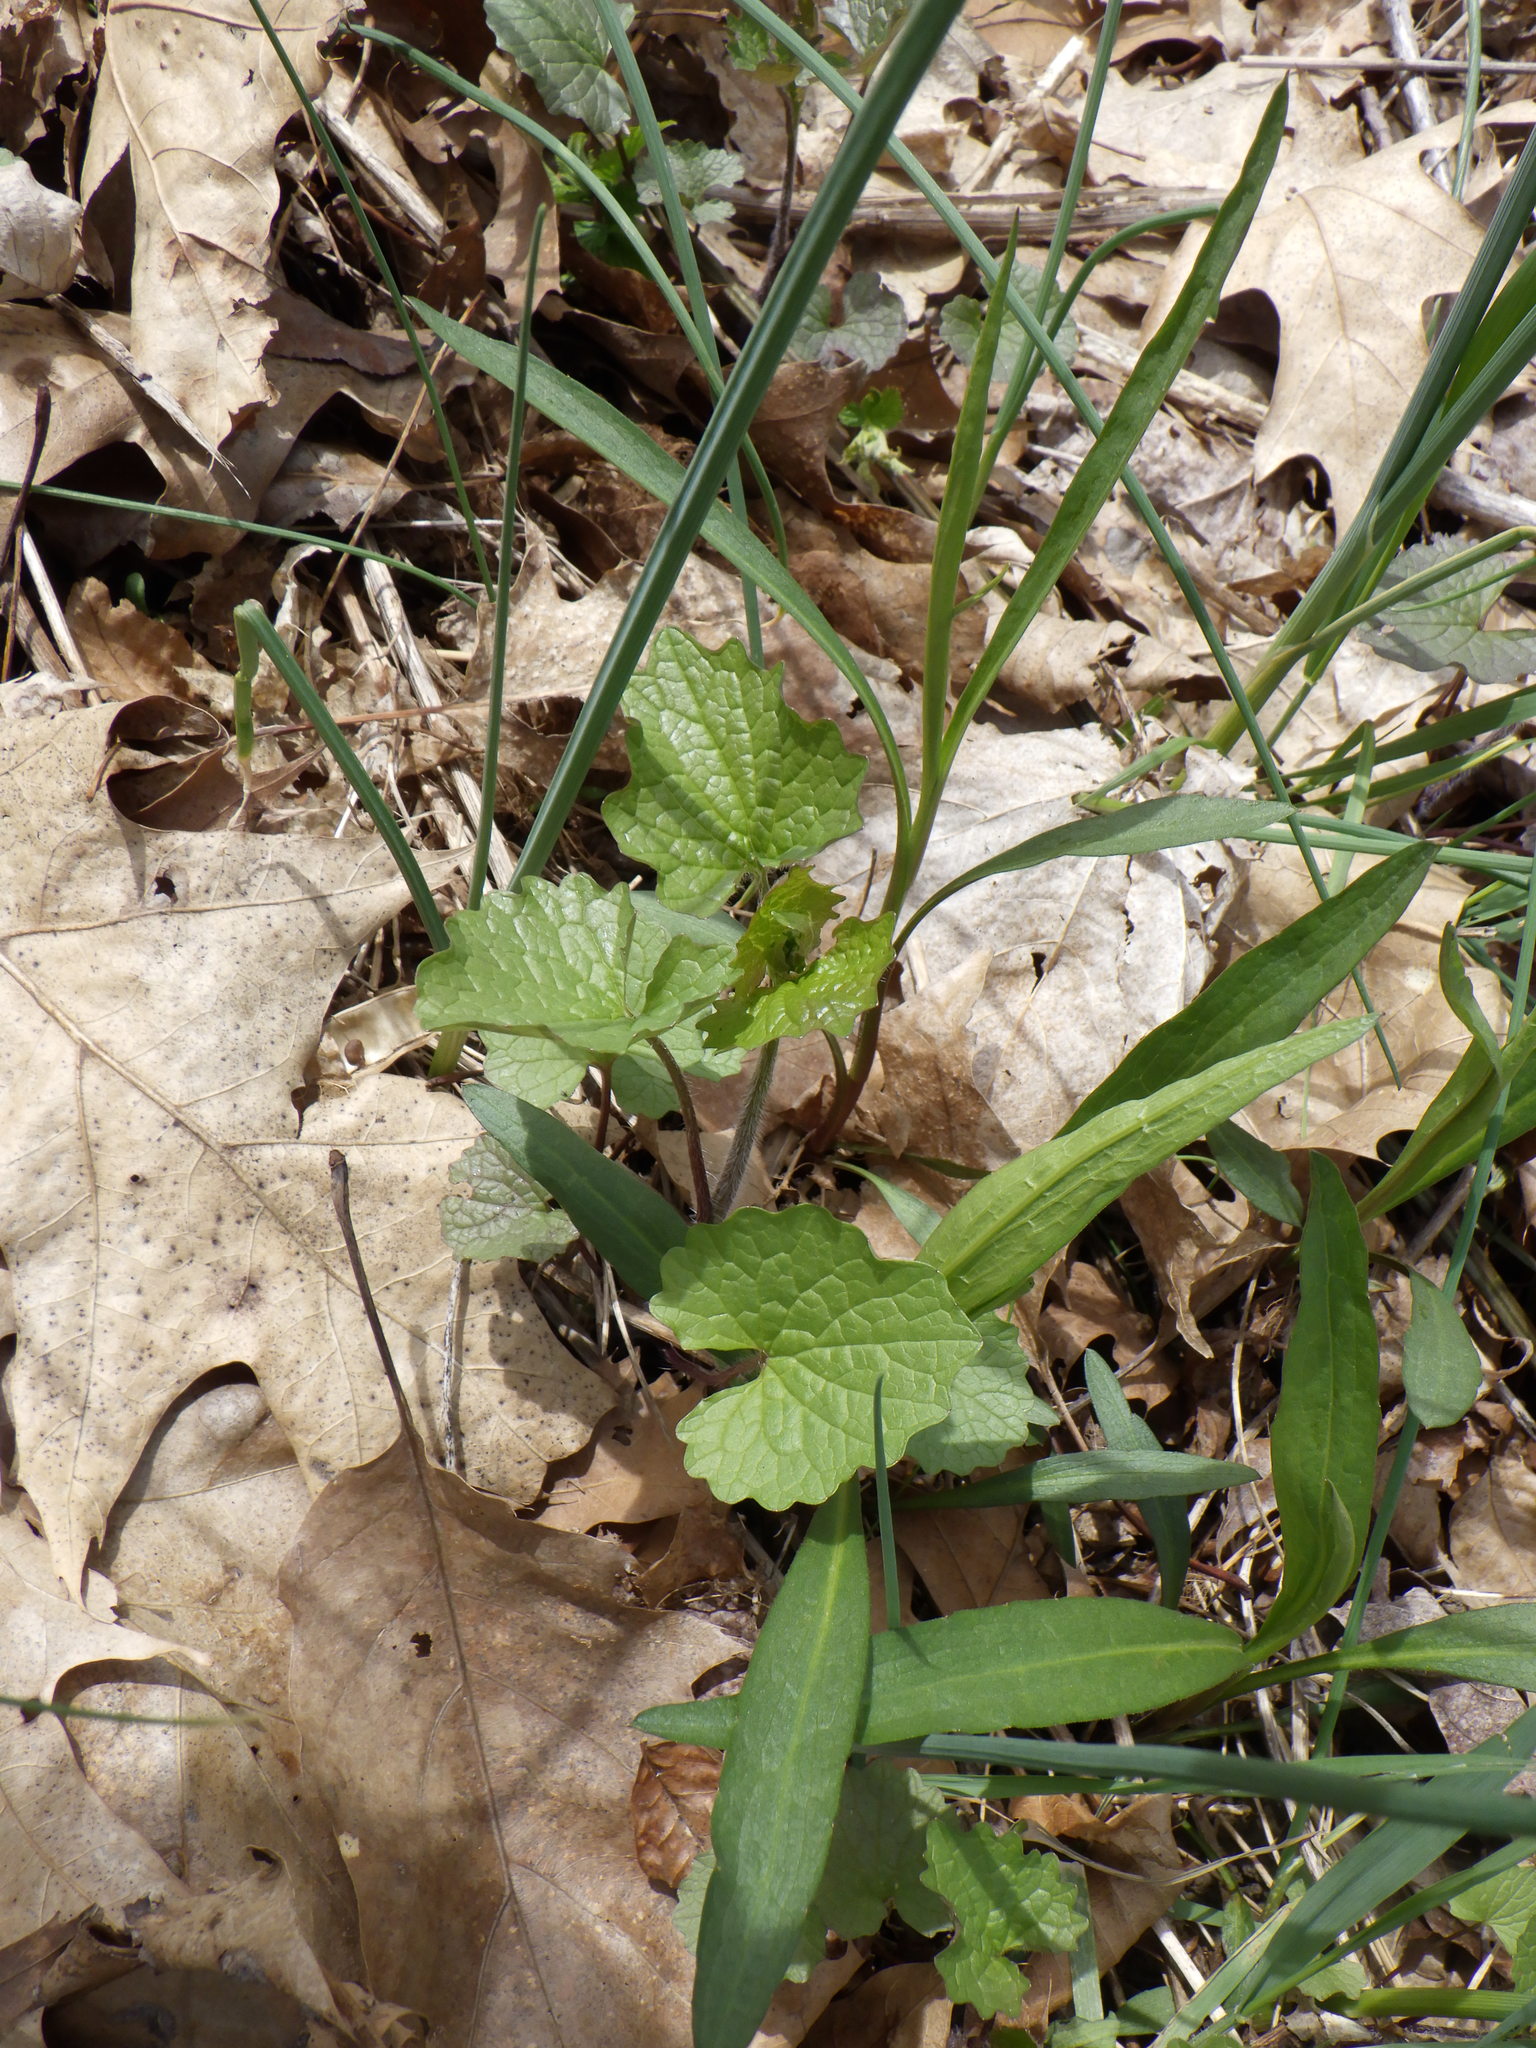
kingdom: Plantae
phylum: Tracheophyta
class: Magnoliopsida
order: Brassicales
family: Brassicaceae
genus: Alliaria
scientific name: Alliaria petiolata
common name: Garlic mustard
